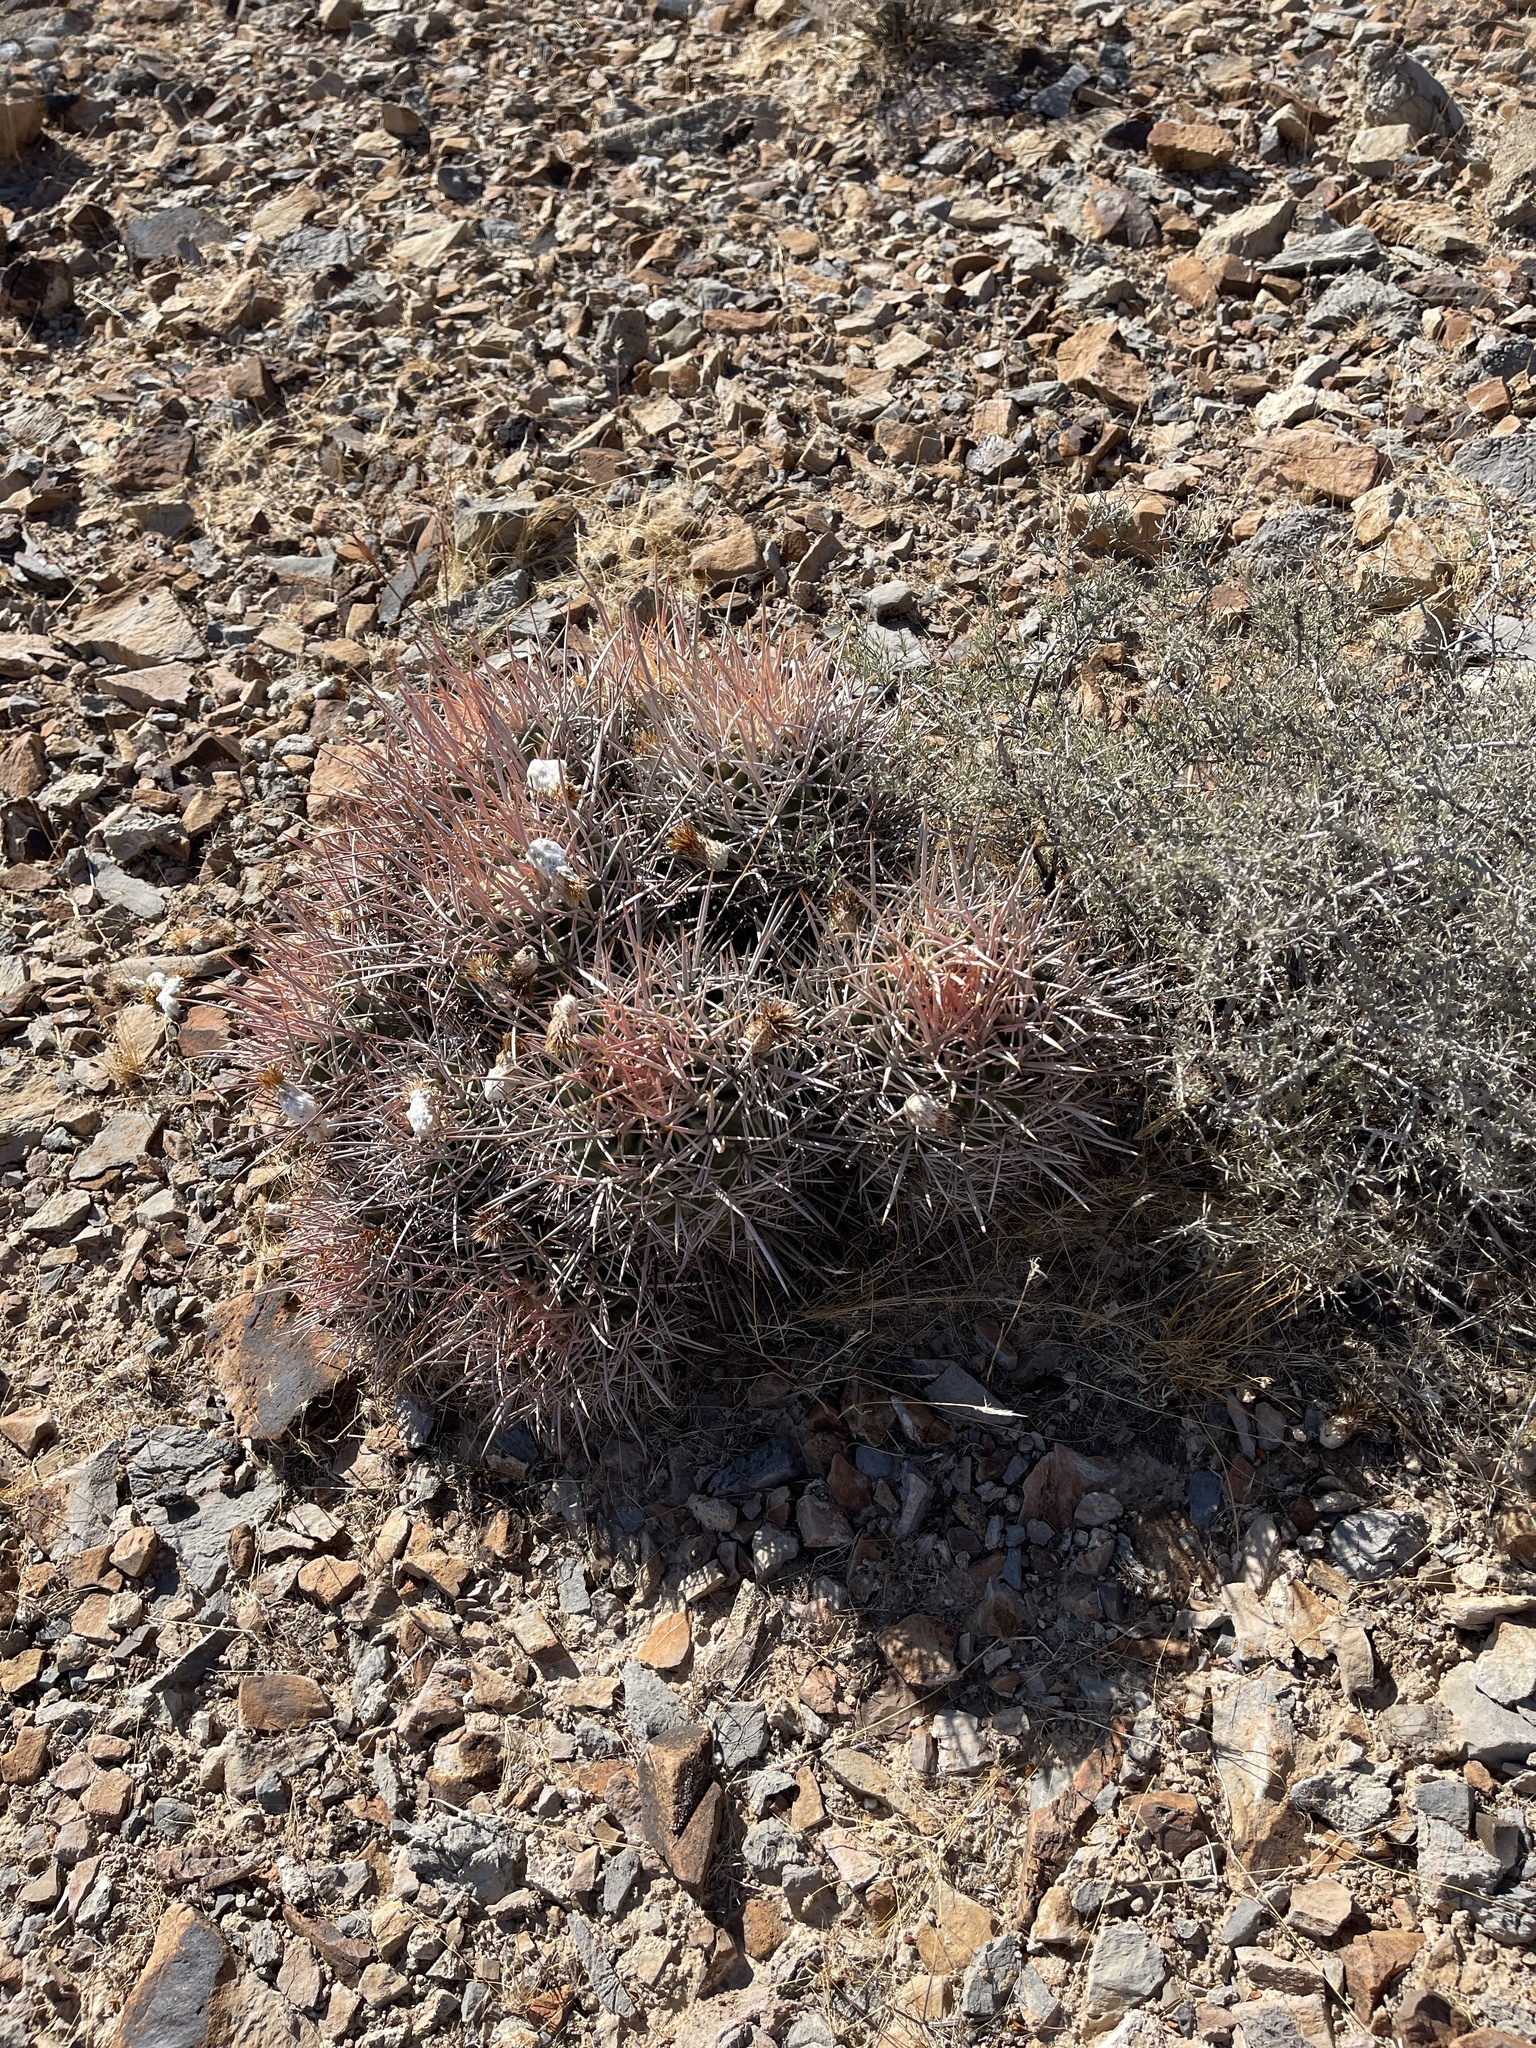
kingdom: Plantae
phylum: Tracheophyta
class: Magnoliopsida
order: Caryophyllales
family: Cactaceae
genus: Echinocactus
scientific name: Echinocactus polycephalus
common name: Cottontop cactus
